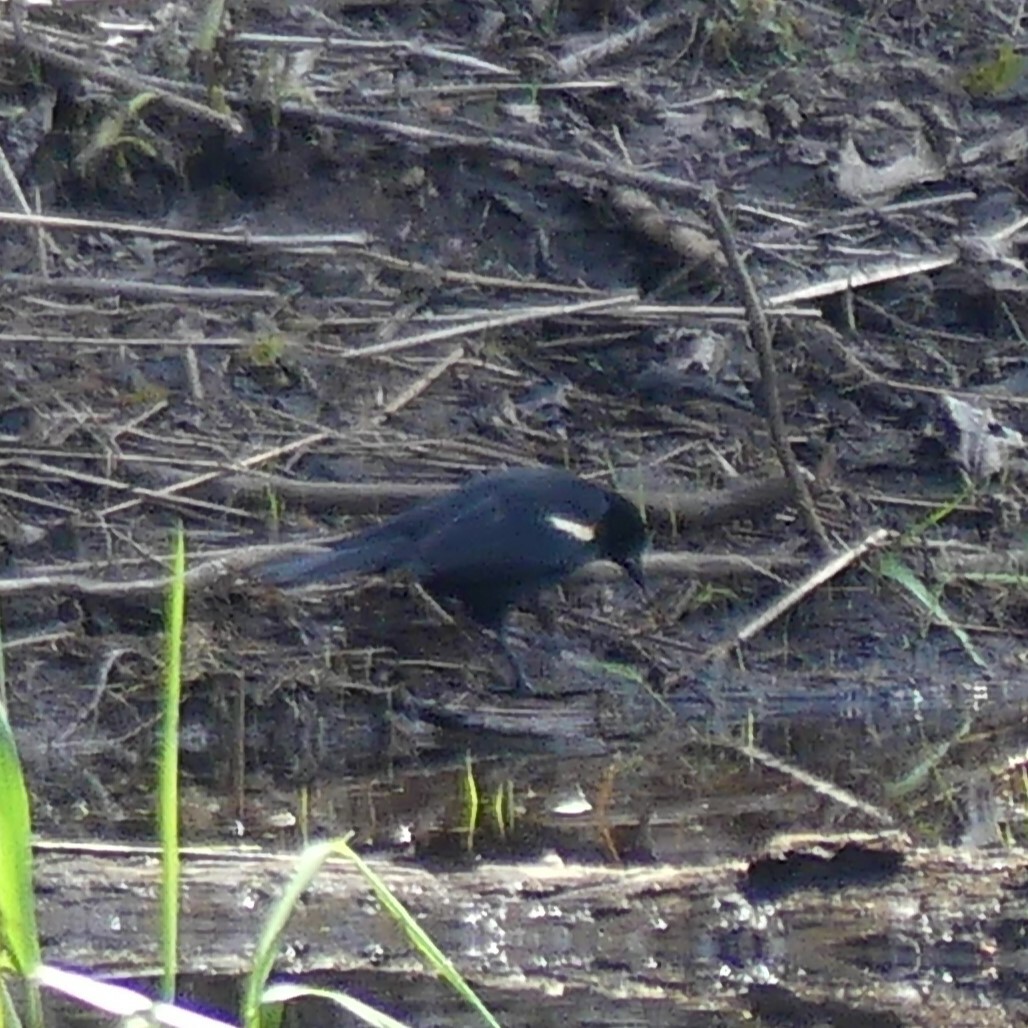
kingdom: Animalia
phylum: Chordata
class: Aves
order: Passeriformes
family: Icteridae
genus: Agelaius
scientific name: Agelaius phoeniceus
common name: Red-winged blackbird
